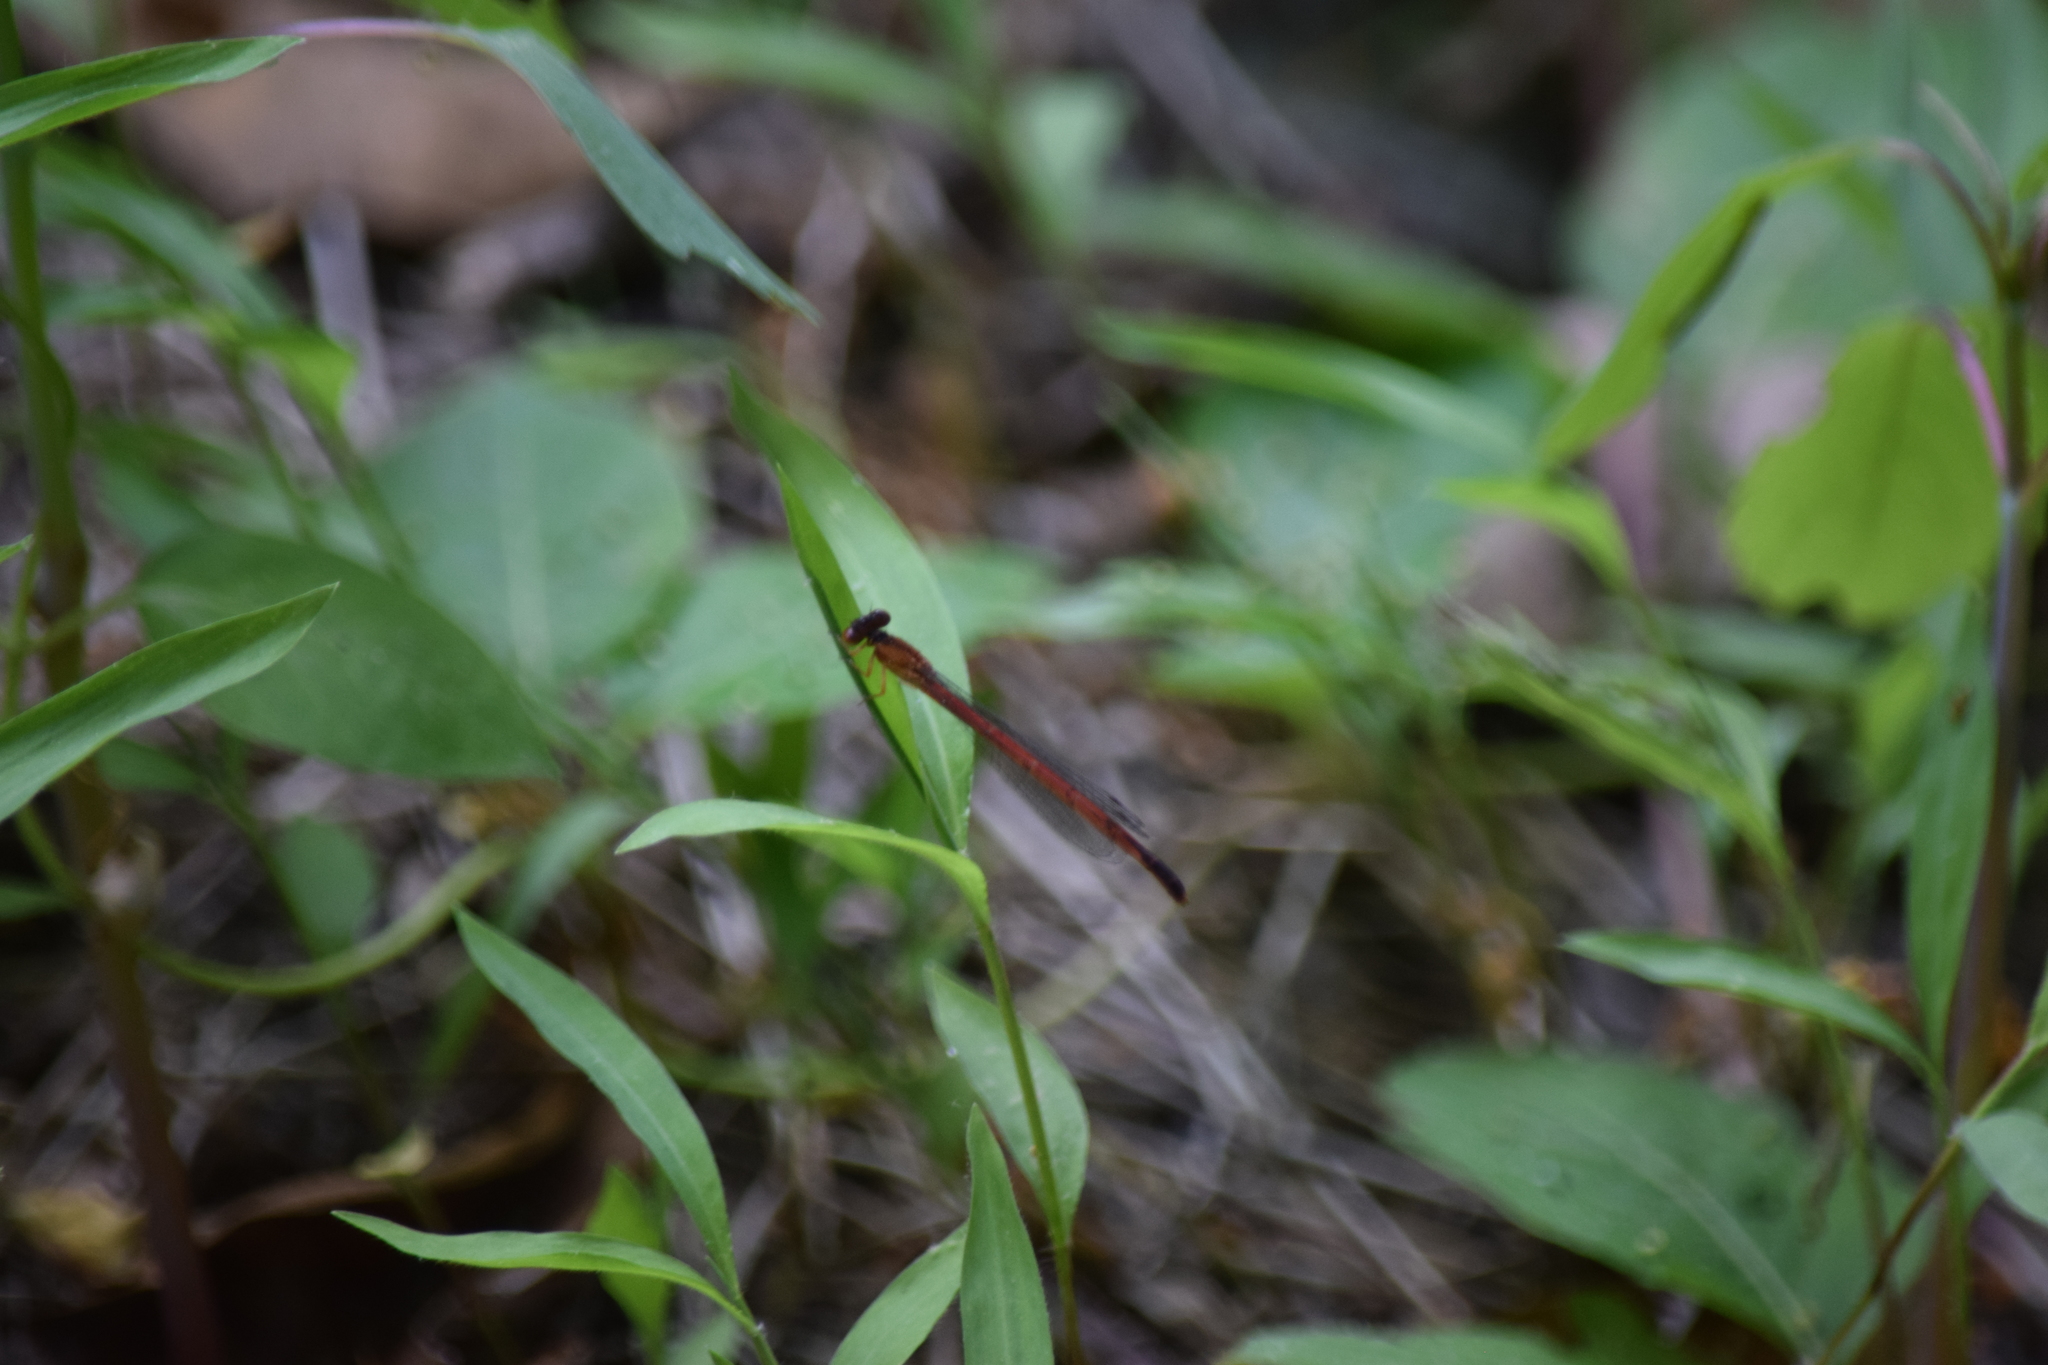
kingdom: Animalia
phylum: Arthropoda
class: Insecta
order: Odonata
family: Coenagrionidae
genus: Amphiagrion
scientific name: Amphiagrion saucium
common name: Eastern red damsel
